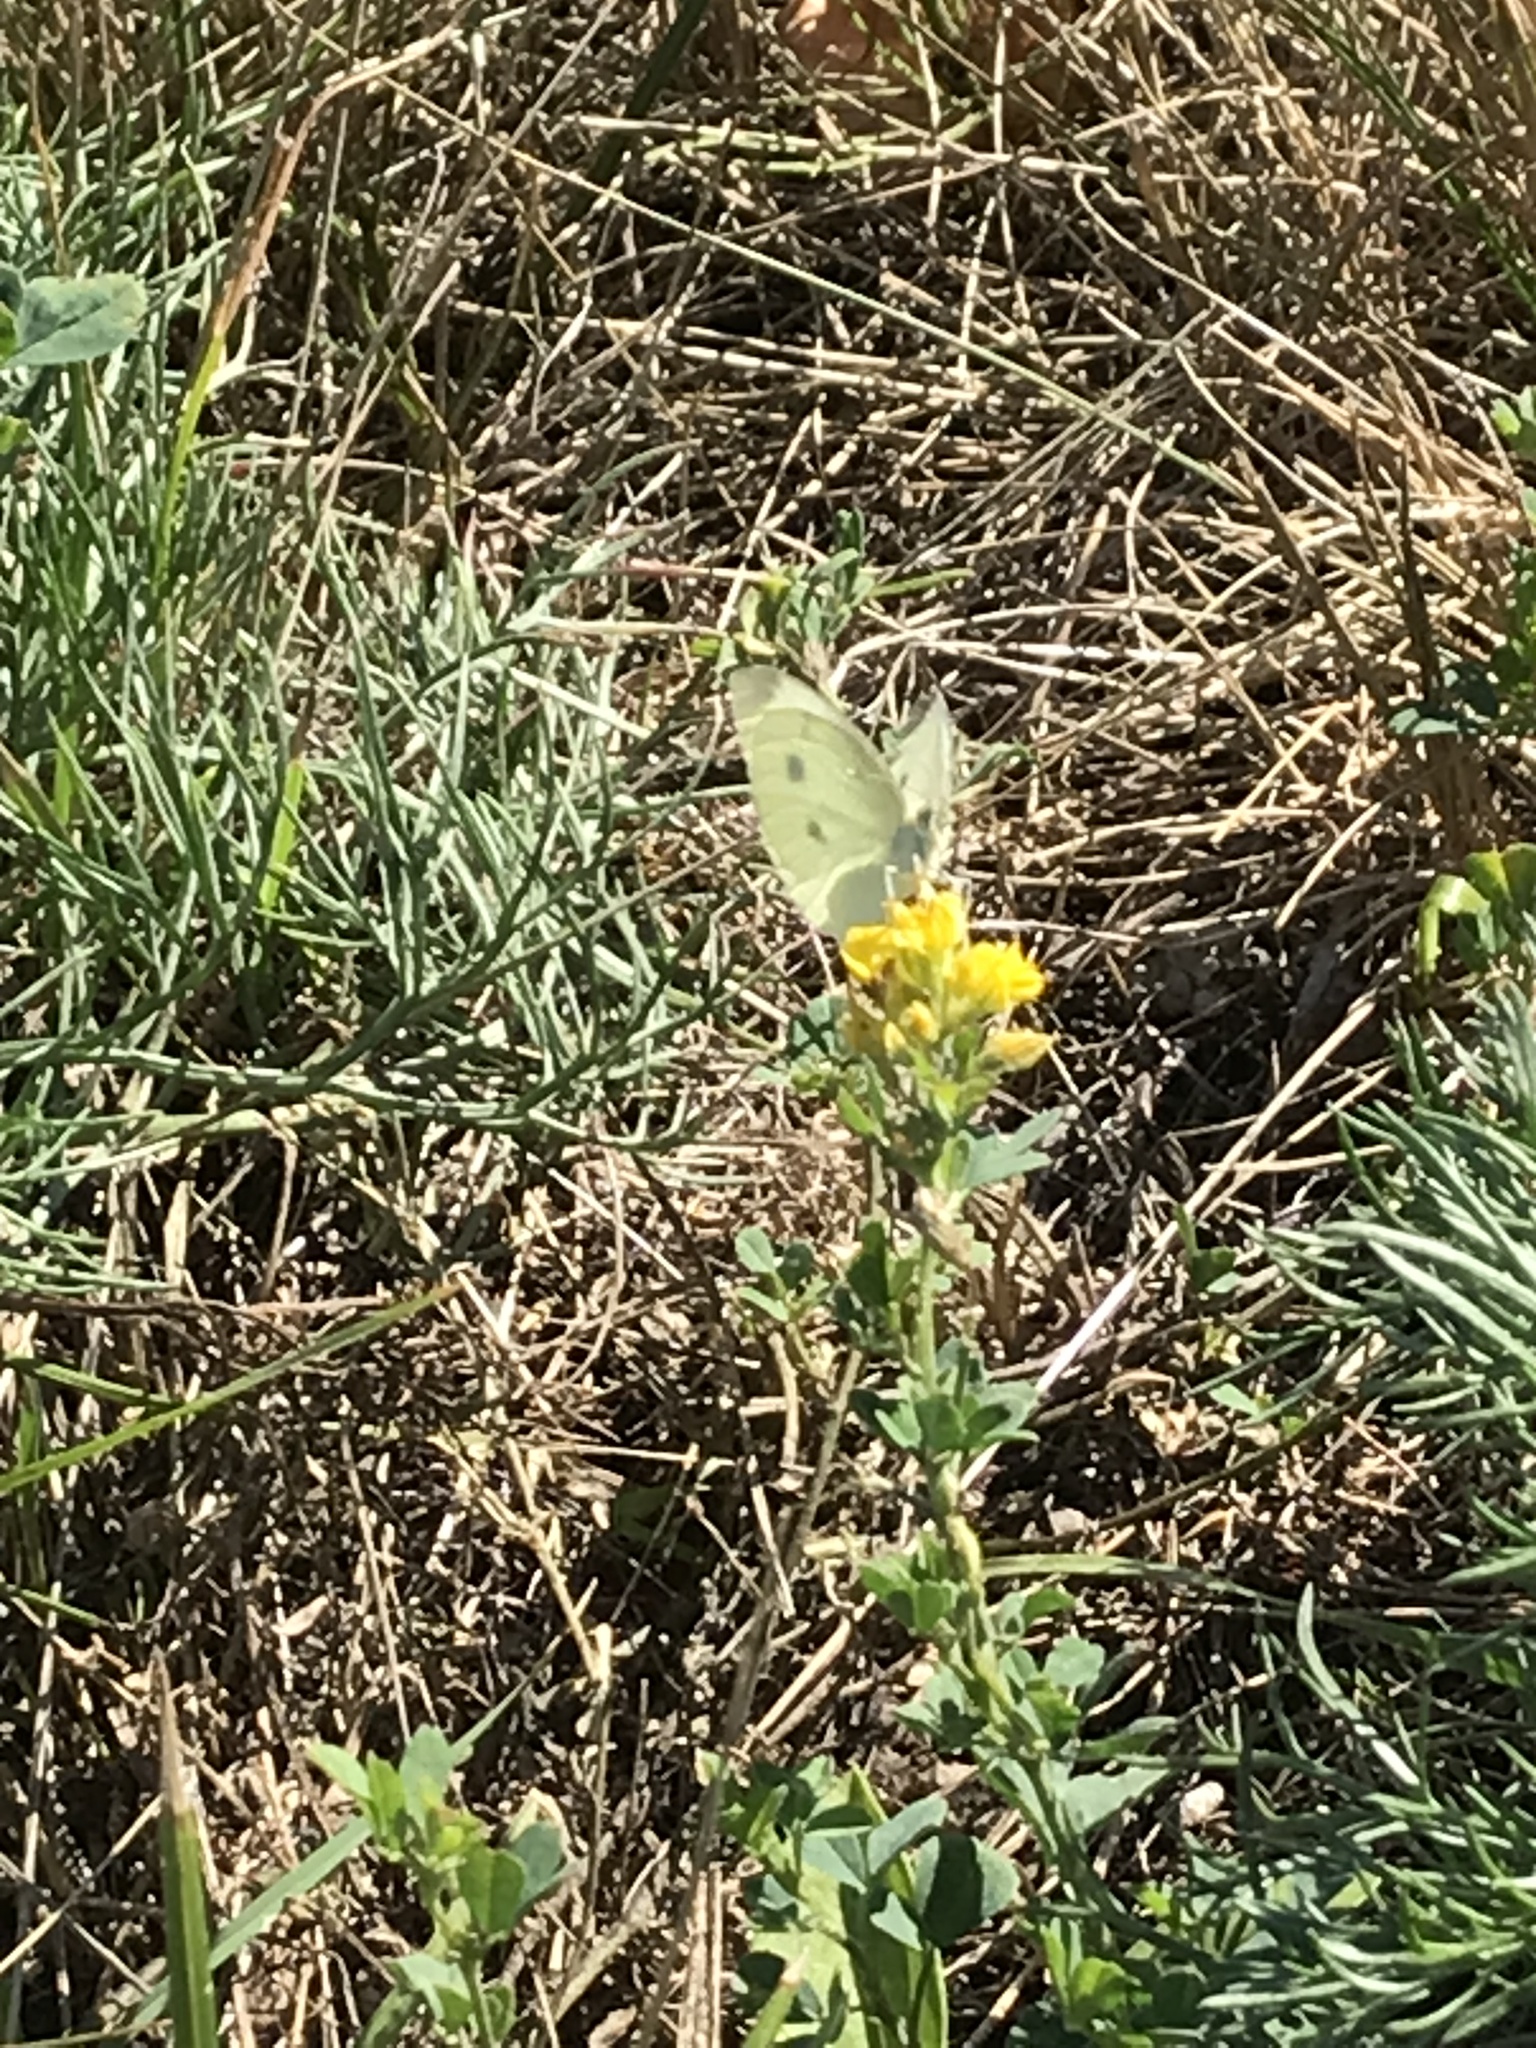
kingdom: Animalia
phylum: Arthropoda
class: Insecta
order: Lepidoptera
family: Pieridae
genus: Pieris
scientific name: Pieris rapae
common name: Small white
